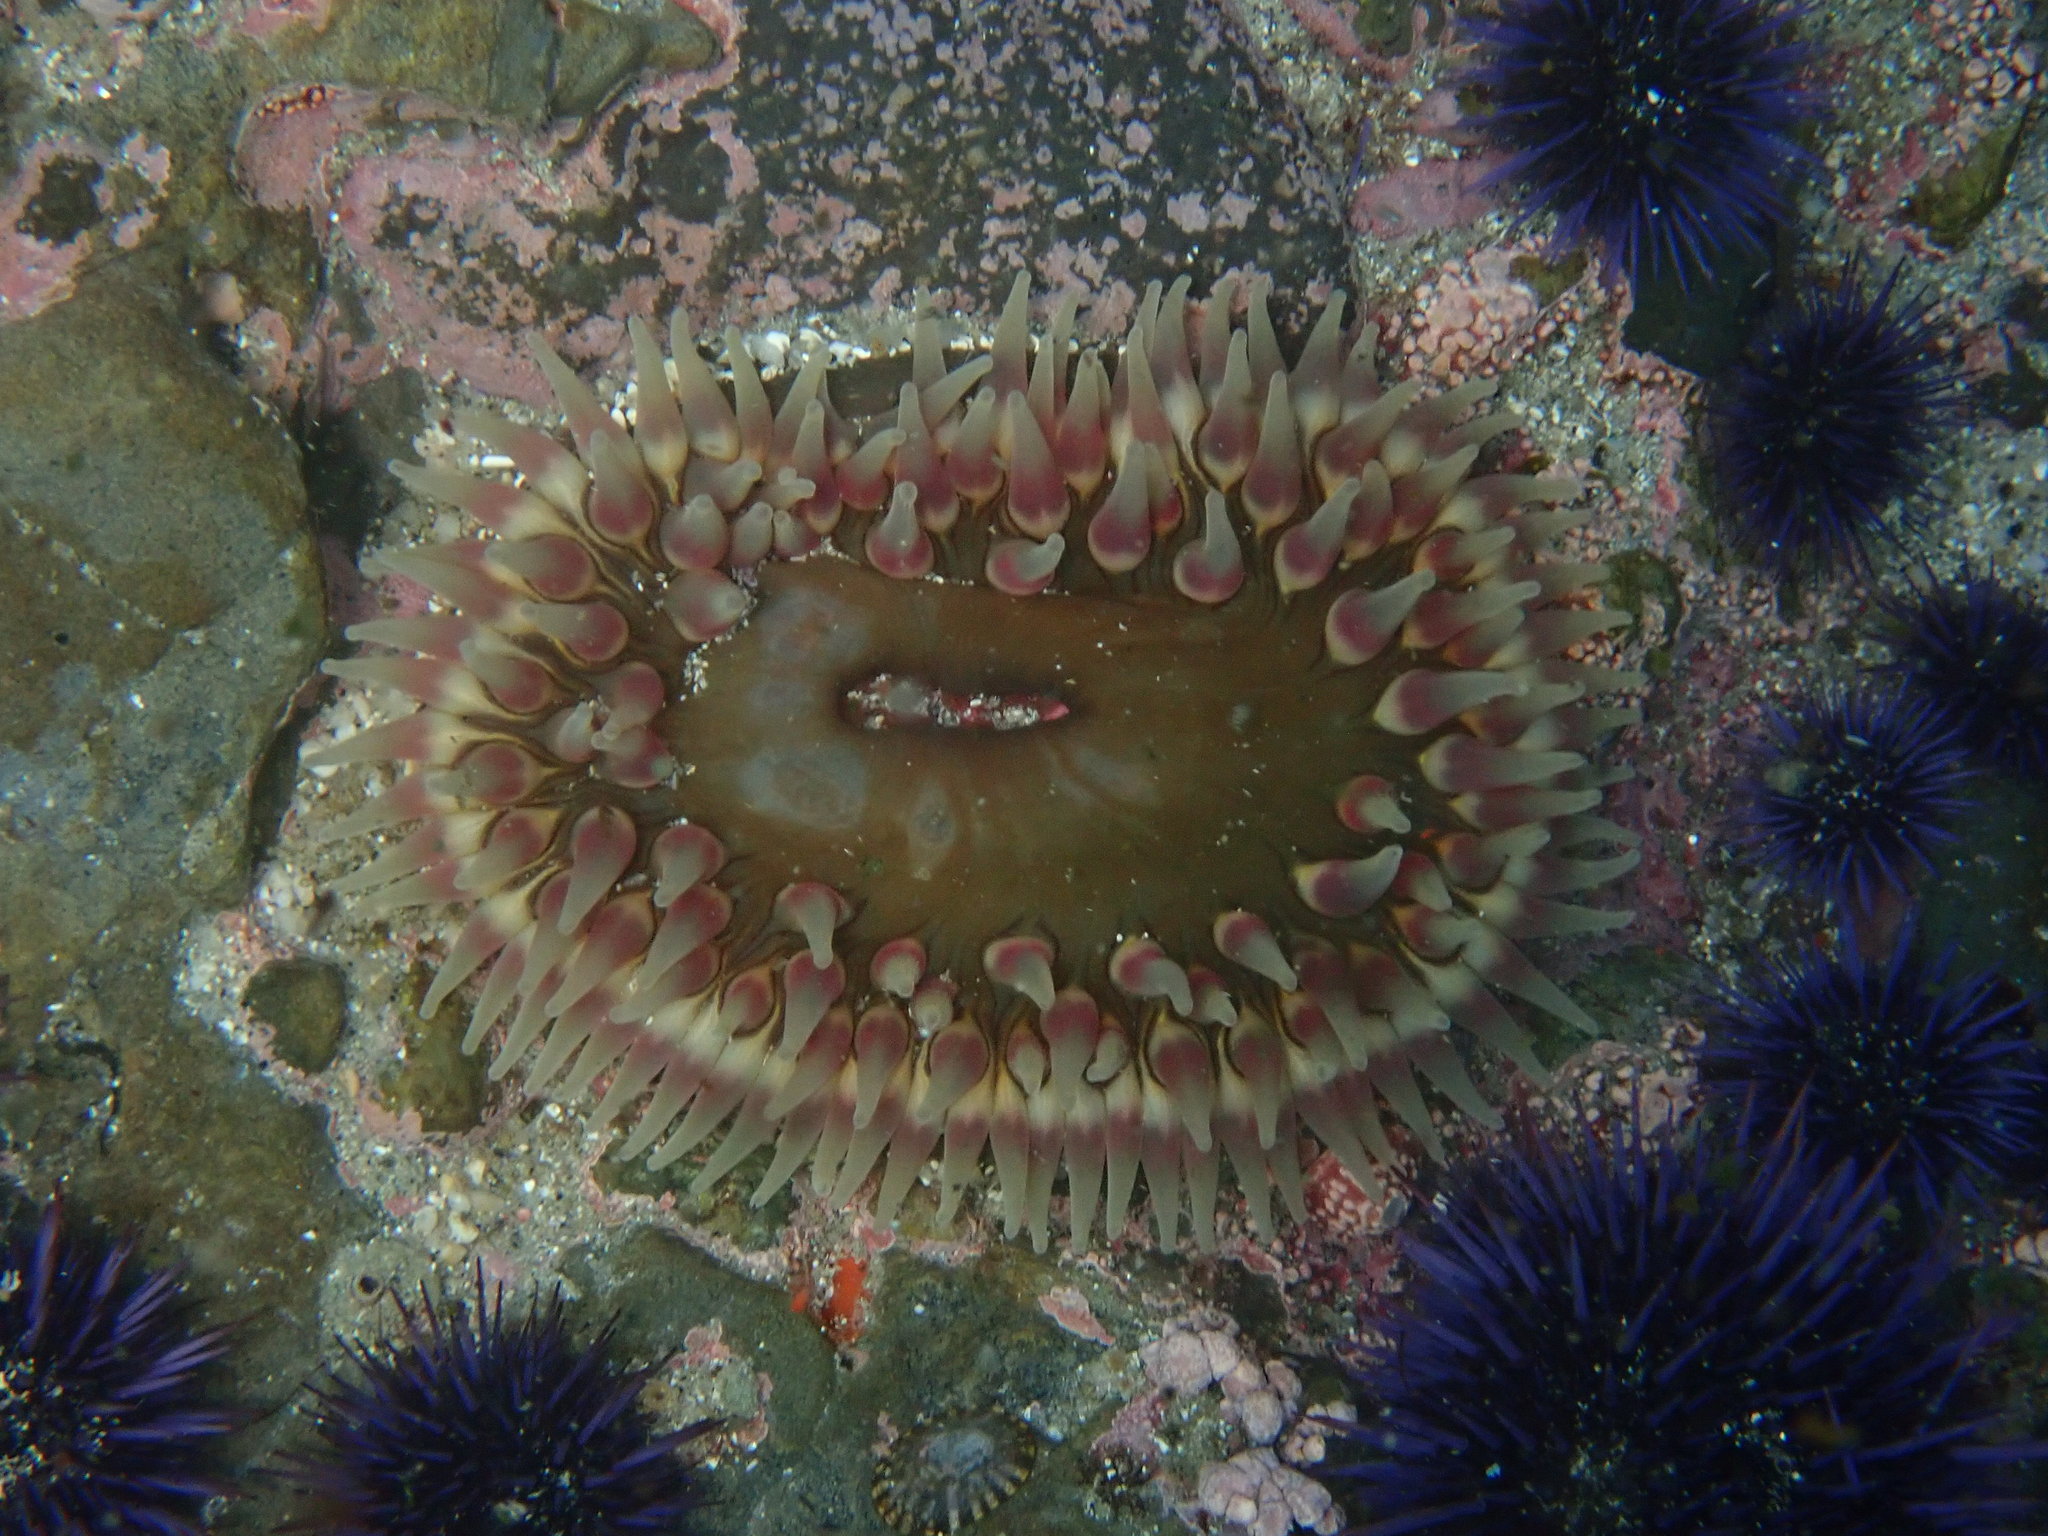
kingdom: Animalia
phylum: Cnidaria
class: Anthozoa
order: Actiniaria
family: Actiniidae
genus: Urticina
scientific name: Urticina clandestina
